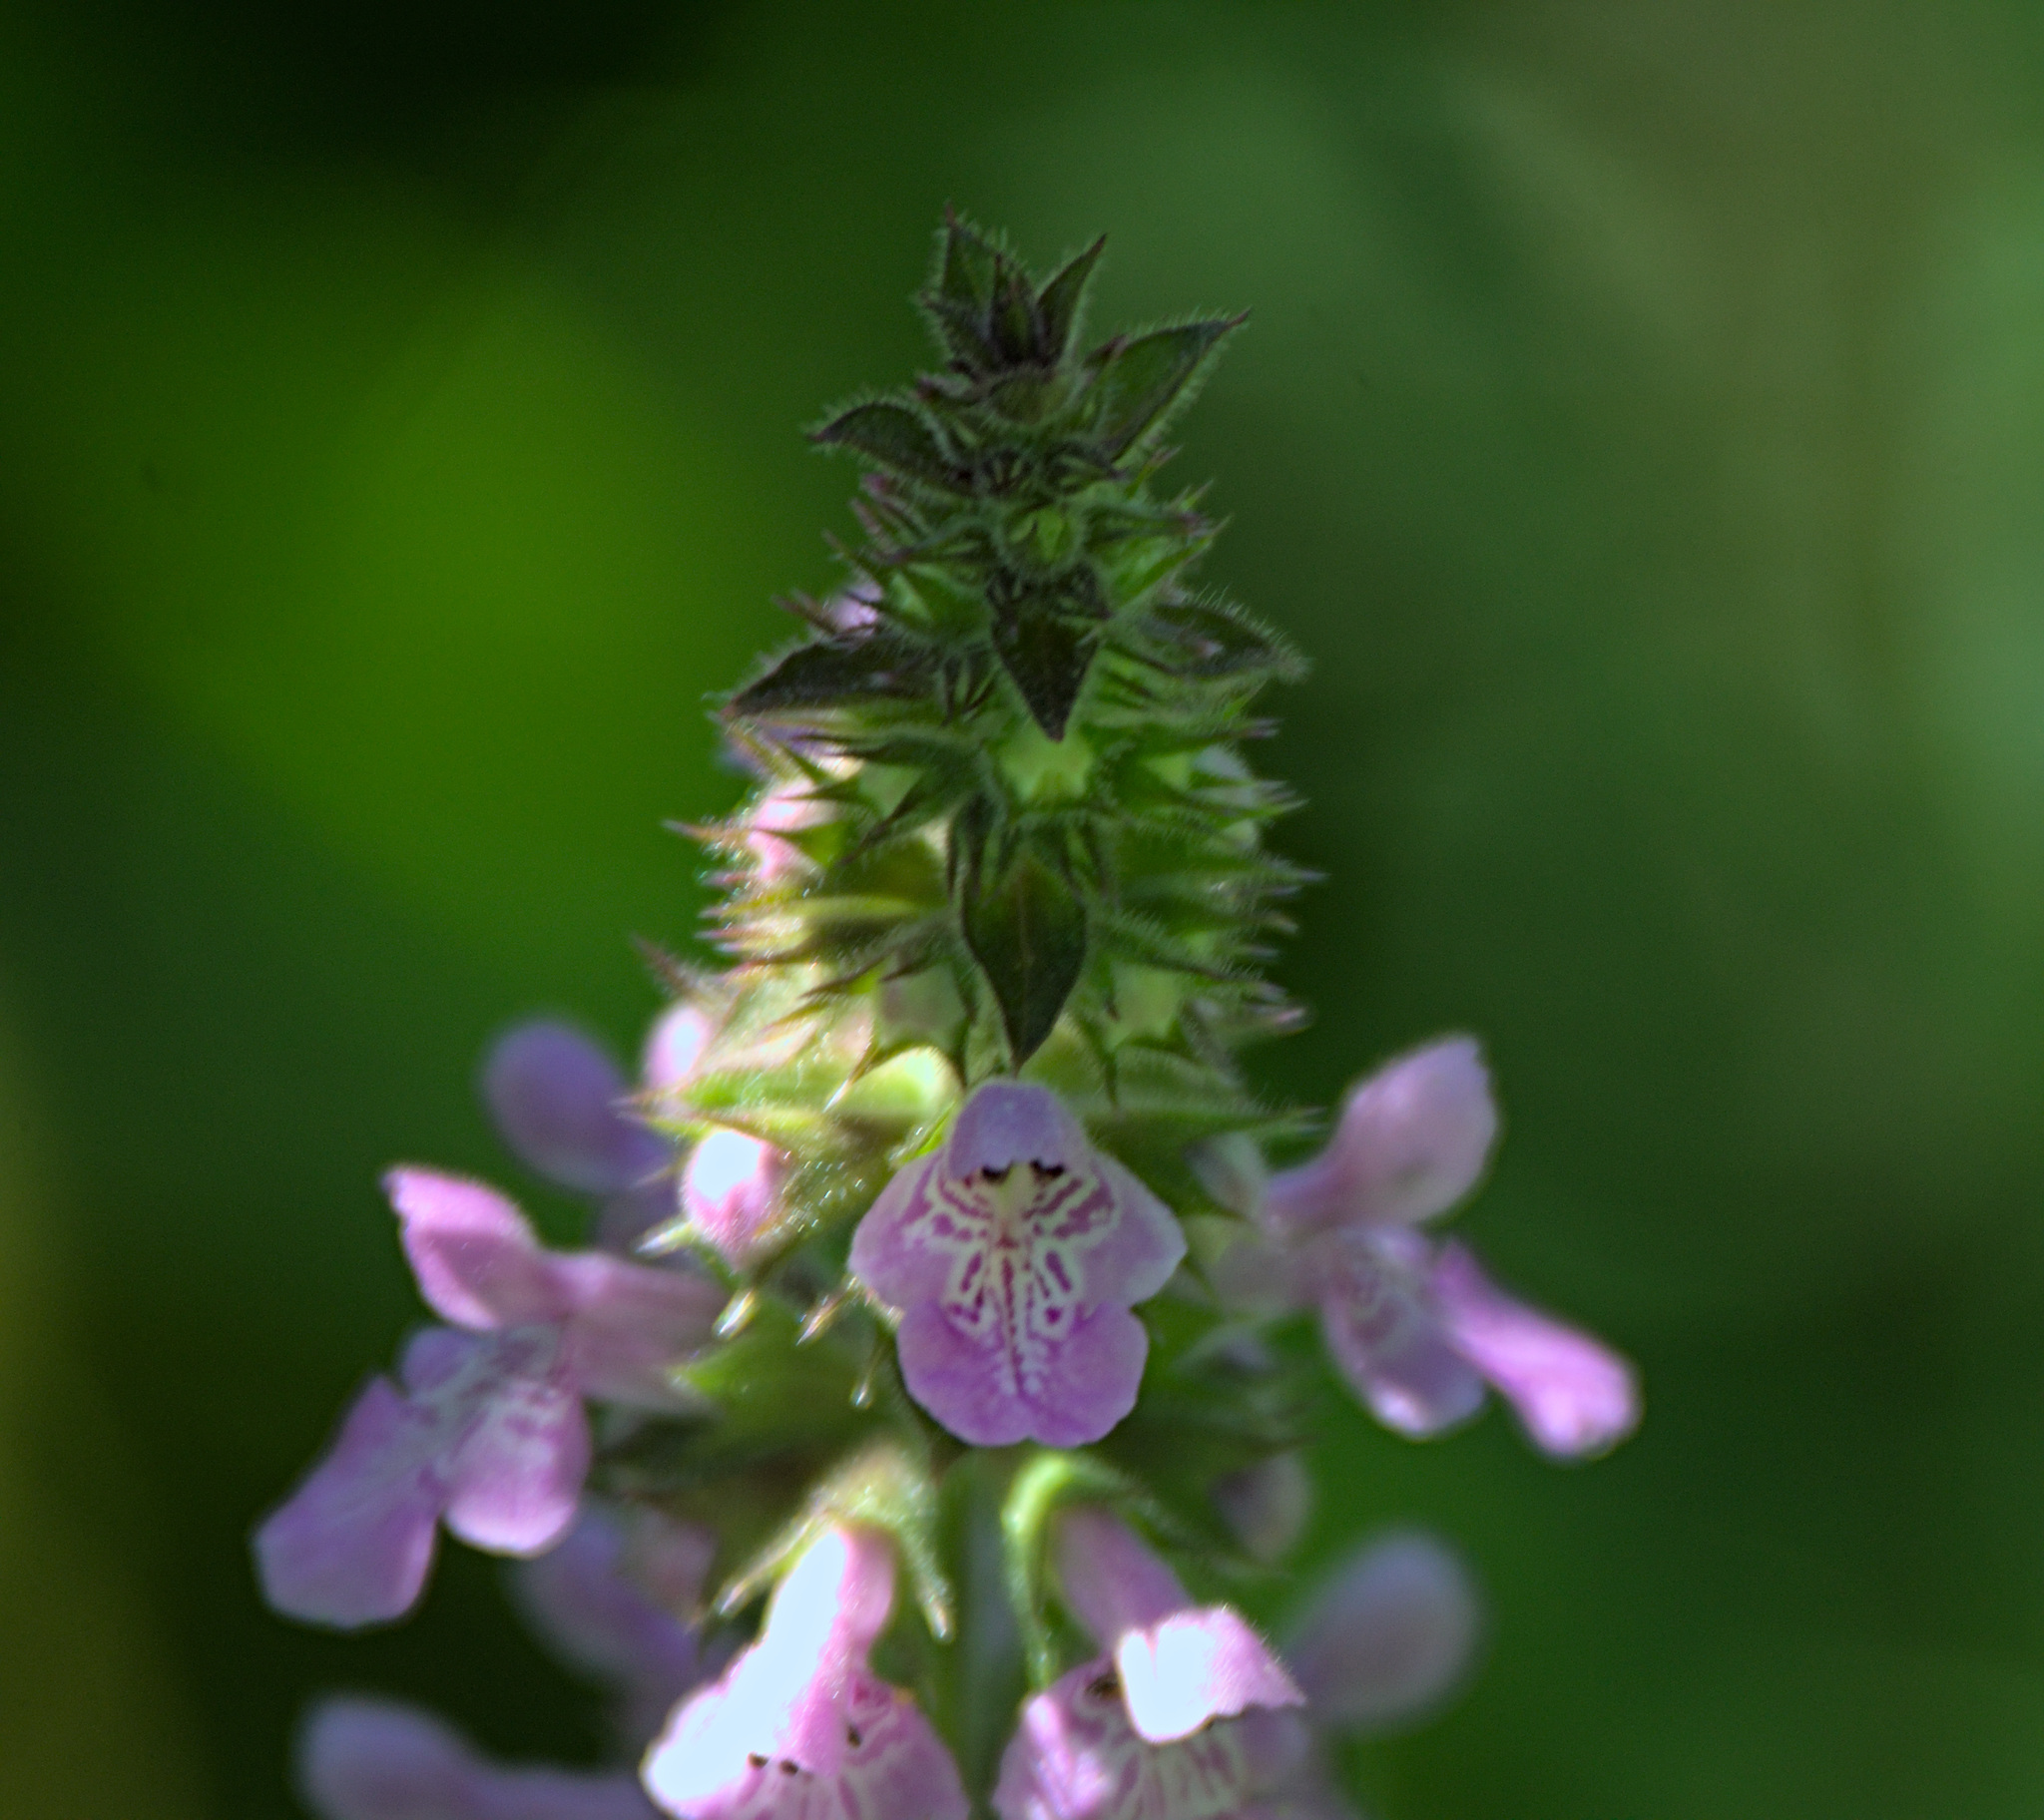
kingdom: Plantae
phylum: Tracheophyta
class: Magnoliopsida
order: Lamiales
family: Lamiaceae
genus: Stachys
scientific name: Stachys palustris
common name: Marsh woundwort
